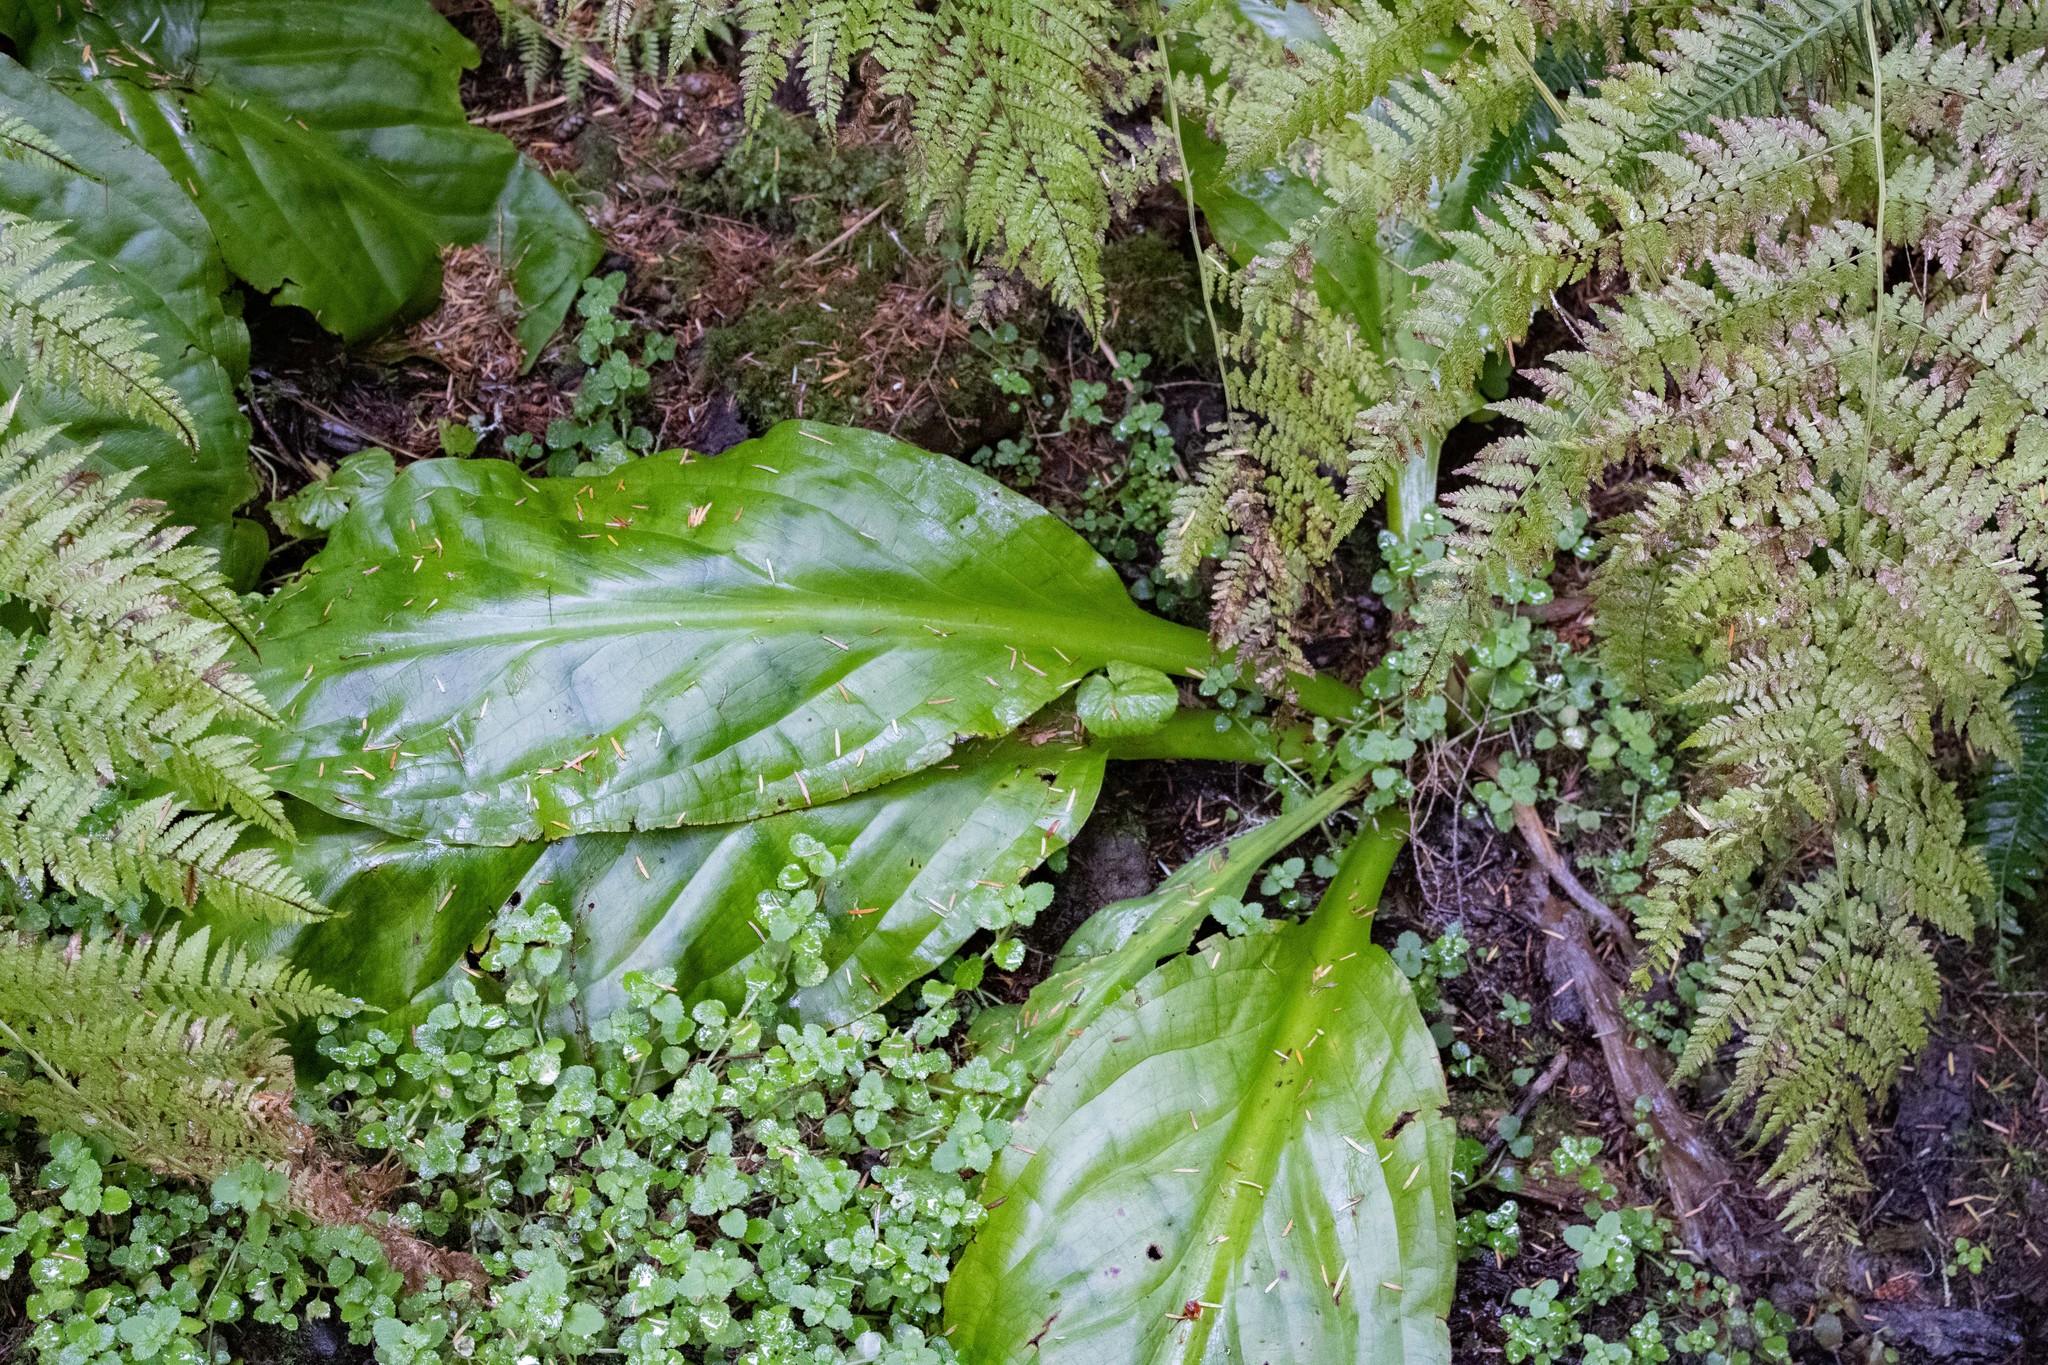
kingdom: Plantae
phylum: Tracheophyta
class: Liliopsida
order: Alismatales
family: Araceae
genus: Lysichiton
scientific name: Lysichiton americanus
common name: American skunk cabbage
